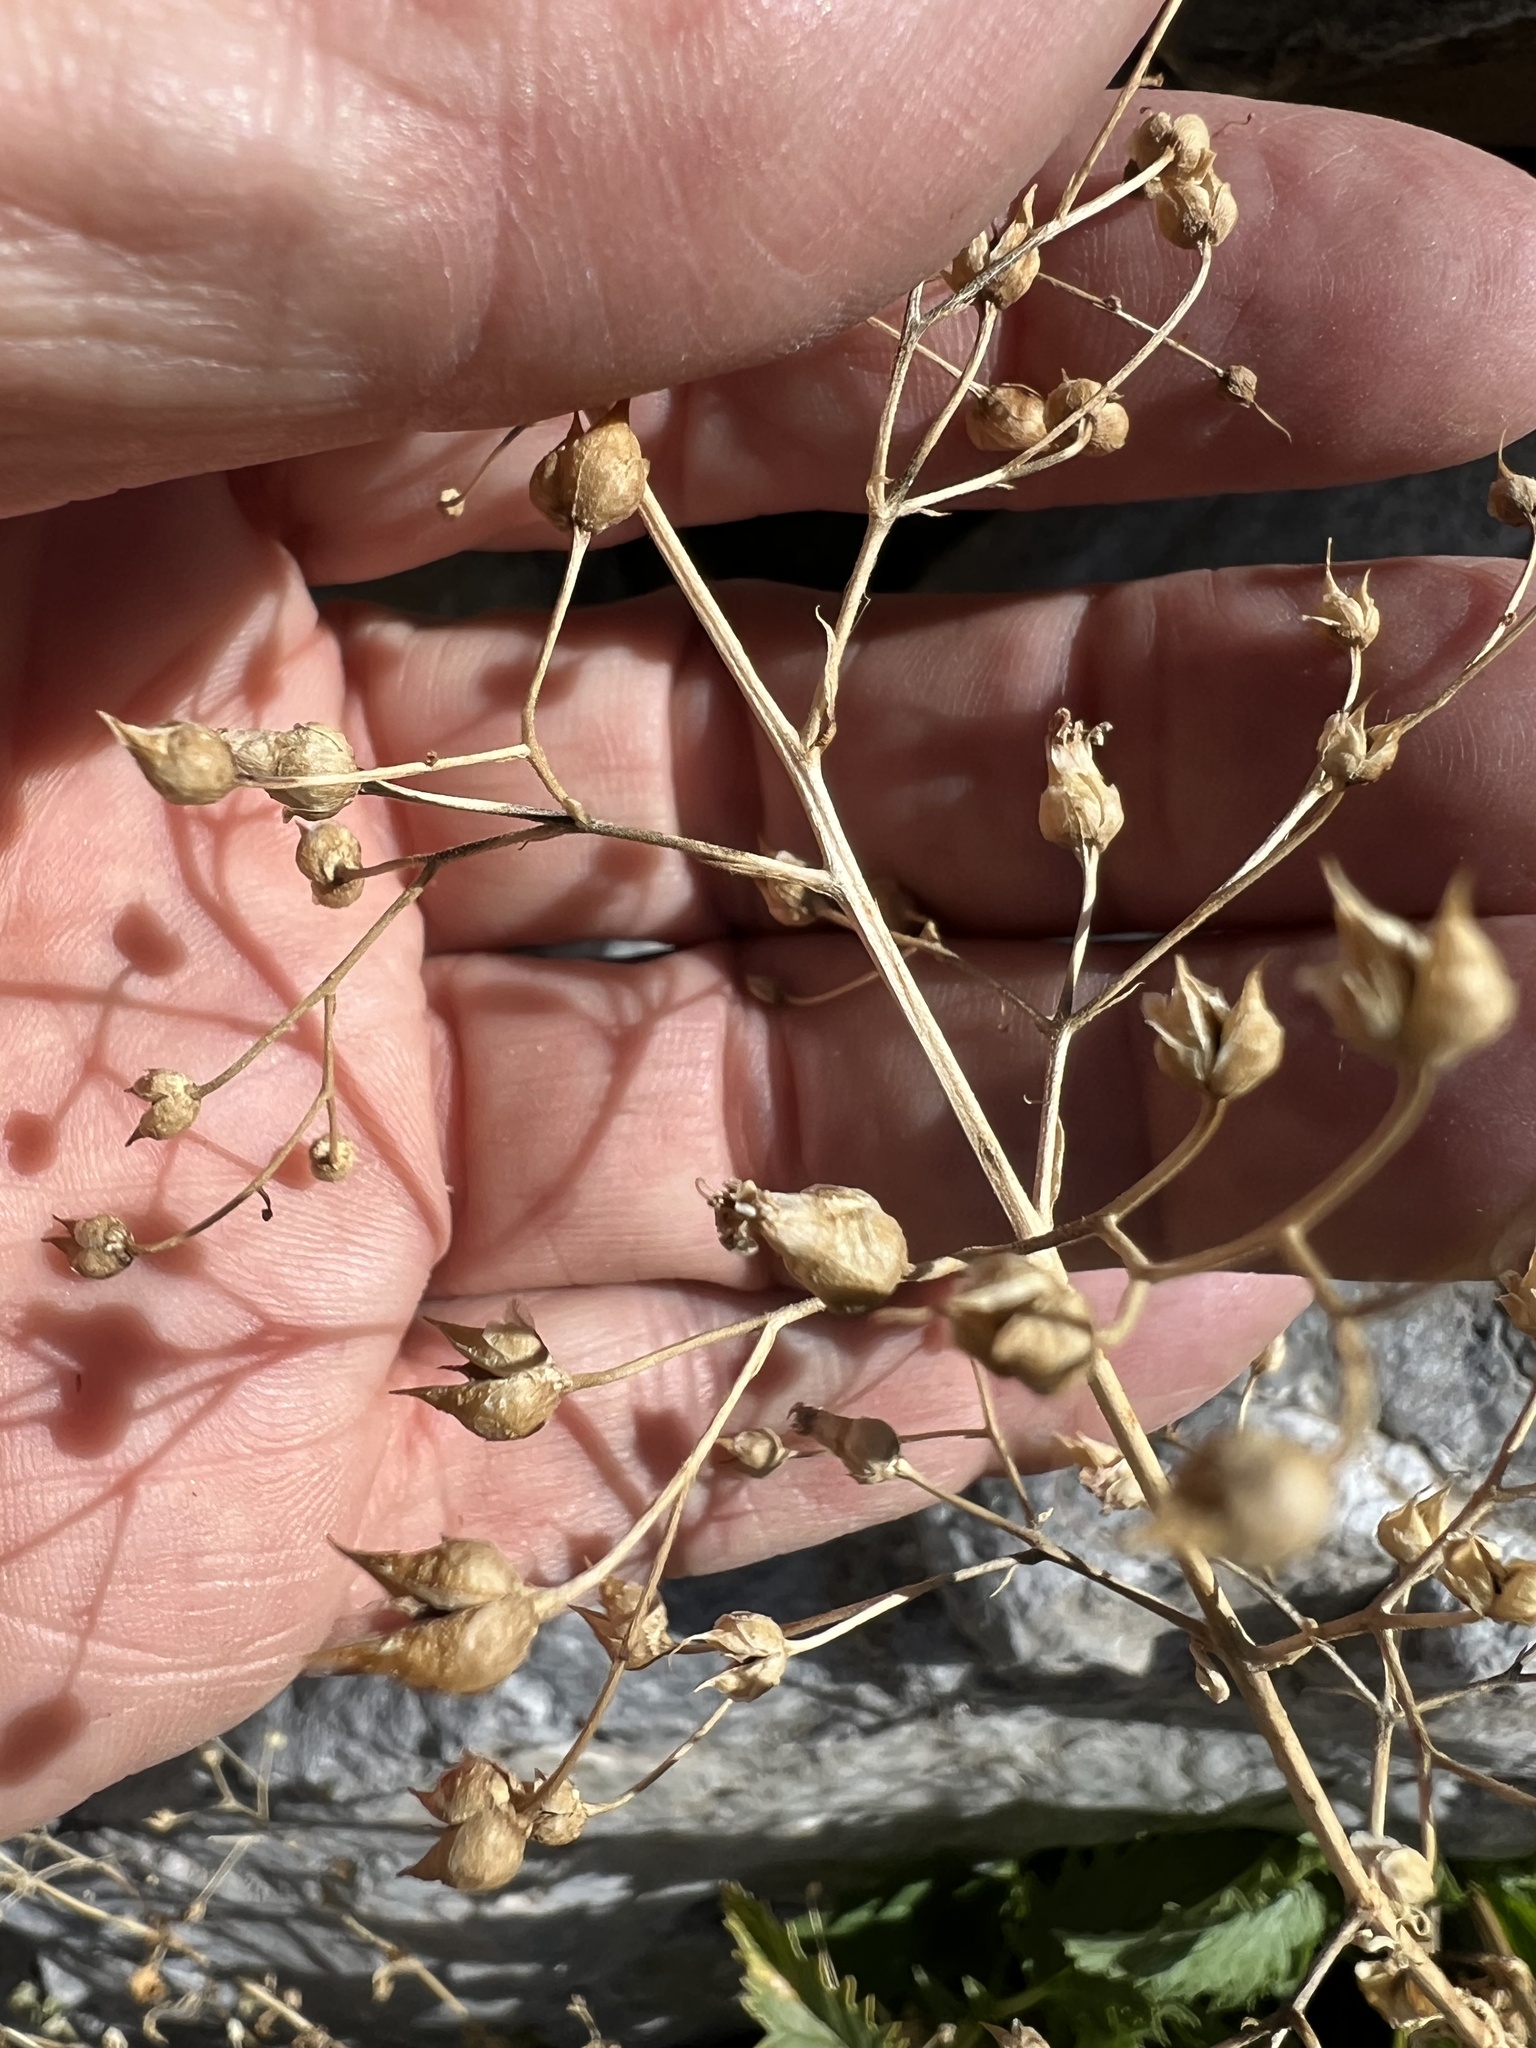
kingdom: Plantae
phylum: Tracheophyta
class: Magnoliopsida
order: Lamiales
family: Scrophulariaceae
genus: Scrophularia
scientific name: Scrophularia desertorum
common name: Desert figwort
